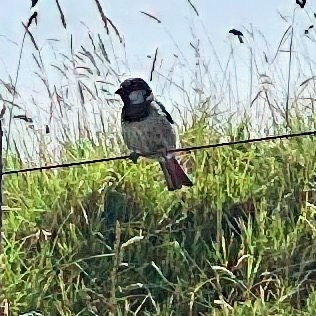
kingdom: Animalia
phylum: Chordata
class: Aves
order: Passeriformes
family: Passeridae
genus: Passer
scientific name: Passer domesticus
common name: House sparrow
